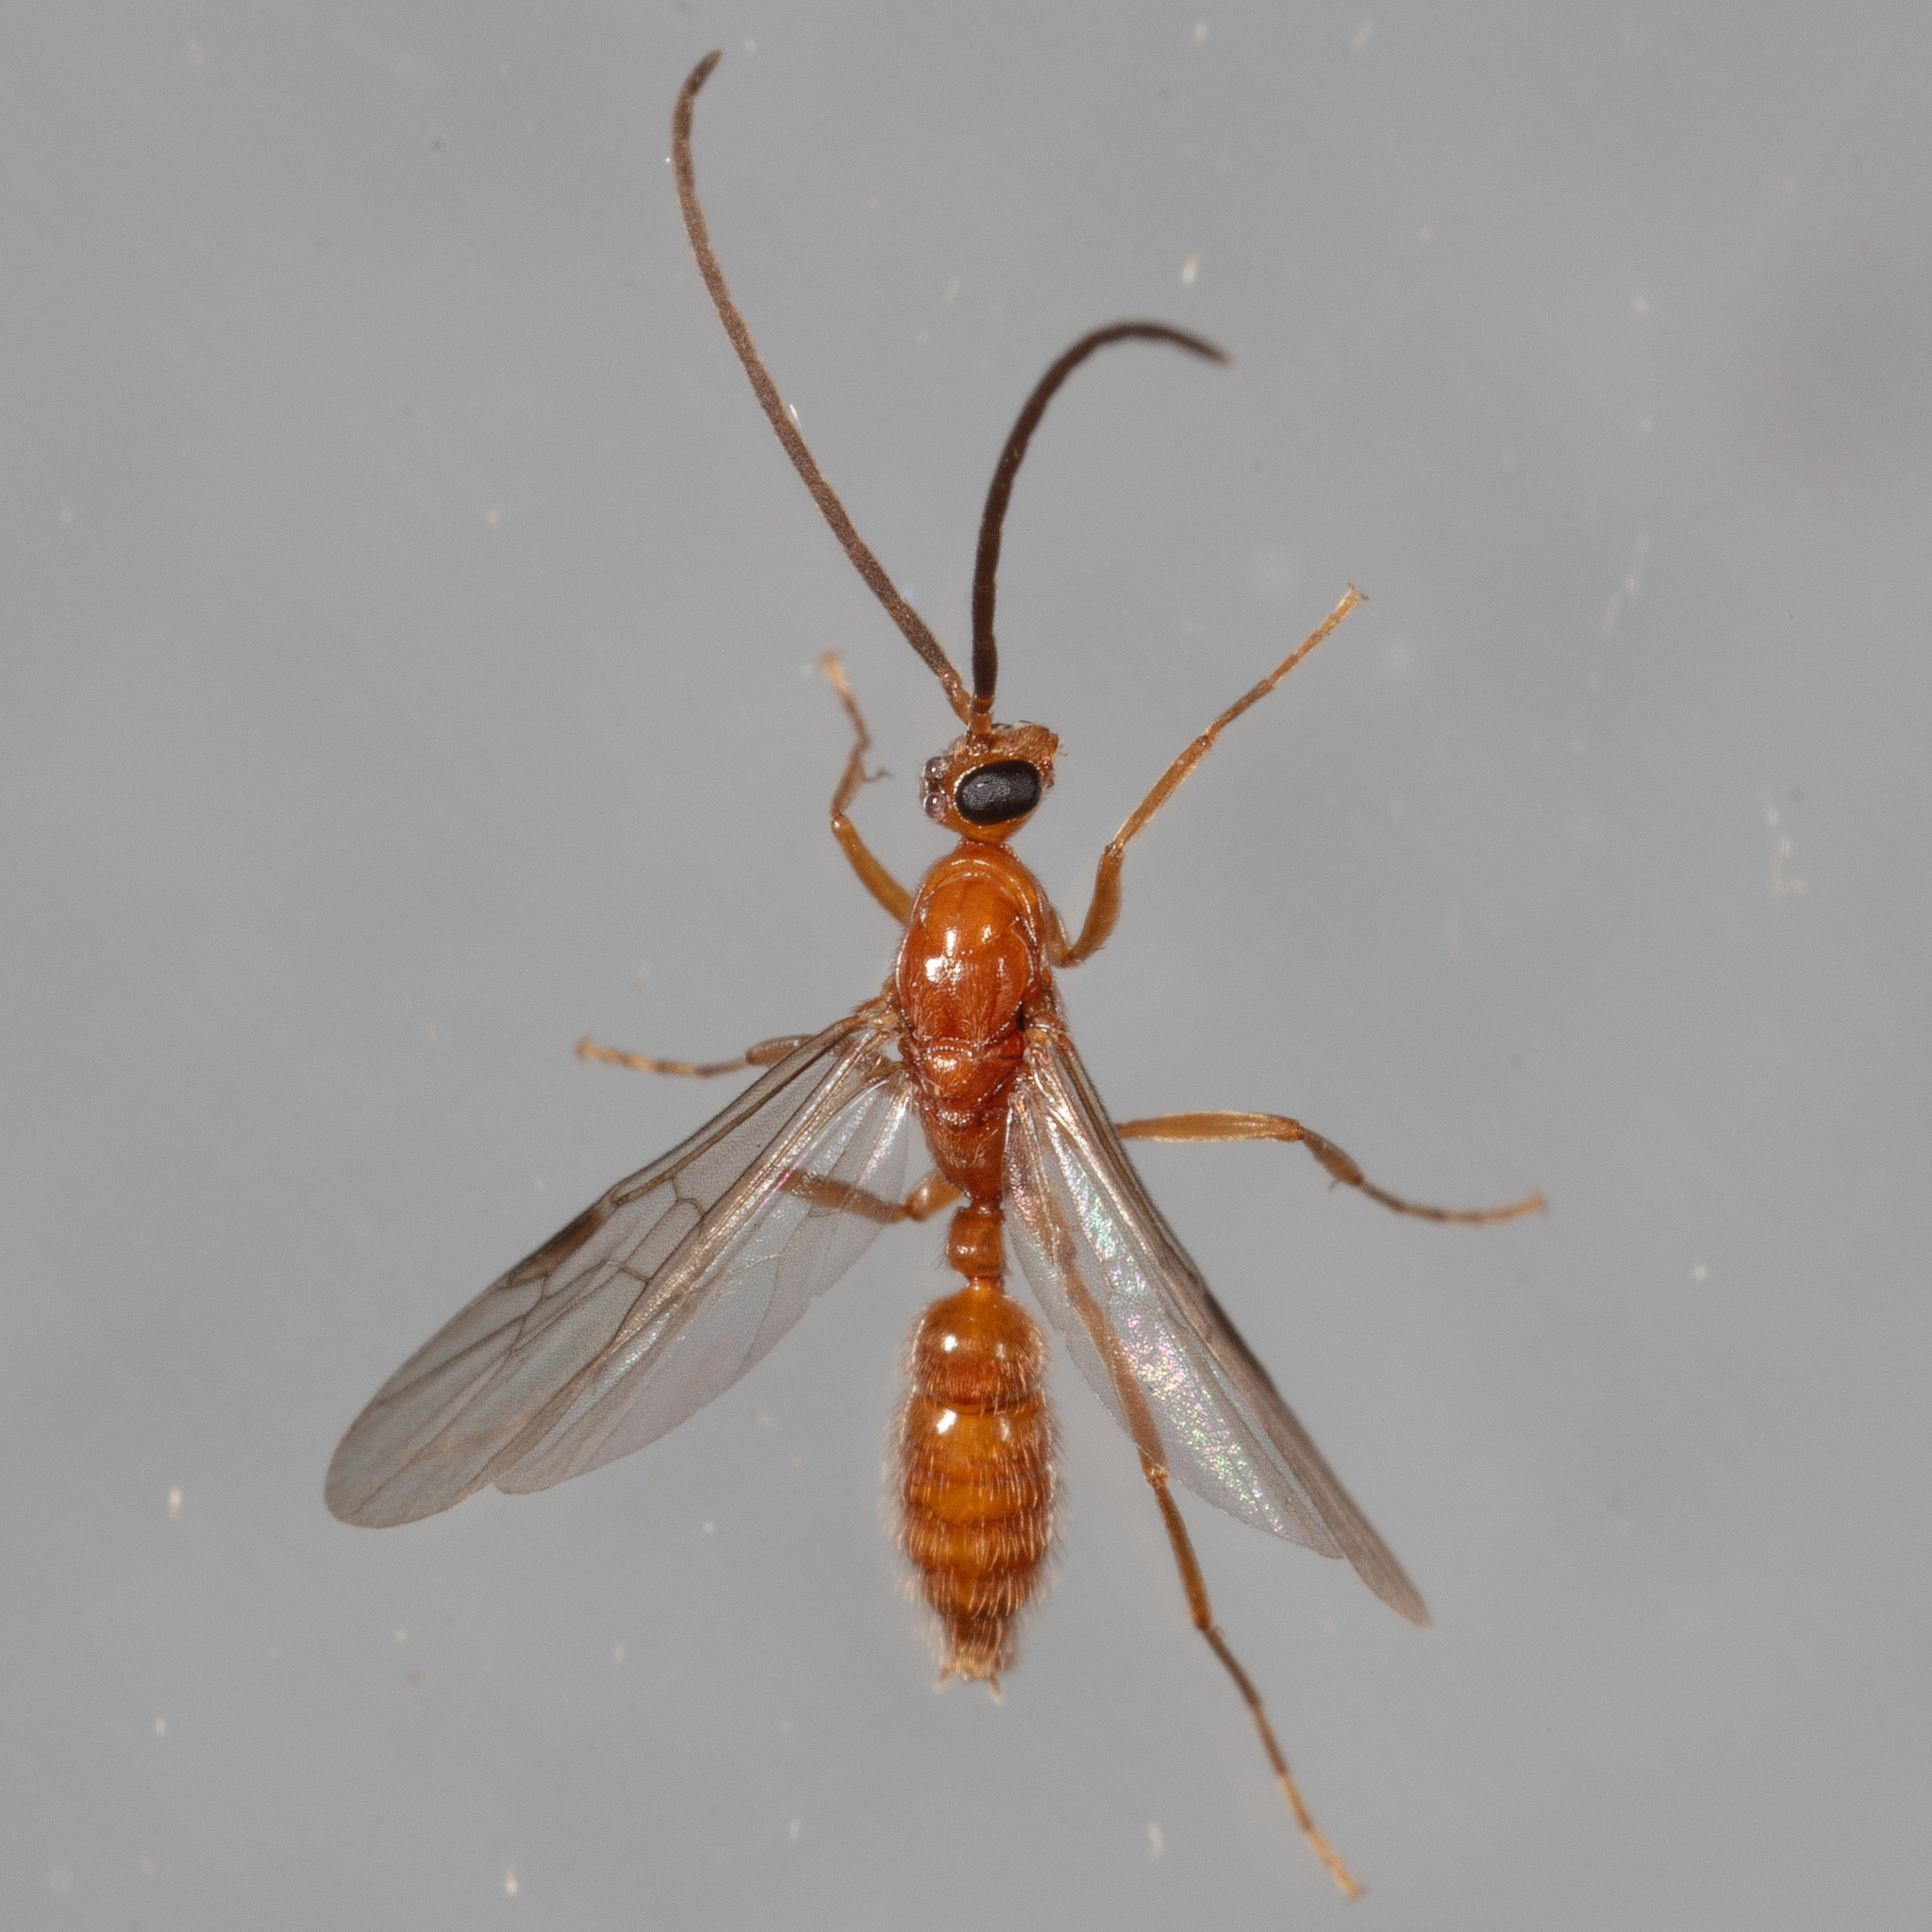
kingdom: Animalia
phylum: Arthropoda
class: Insecta
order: Hymenoptera
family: Formicidae
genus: Leptogenys
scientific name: Leptogenys elongata
